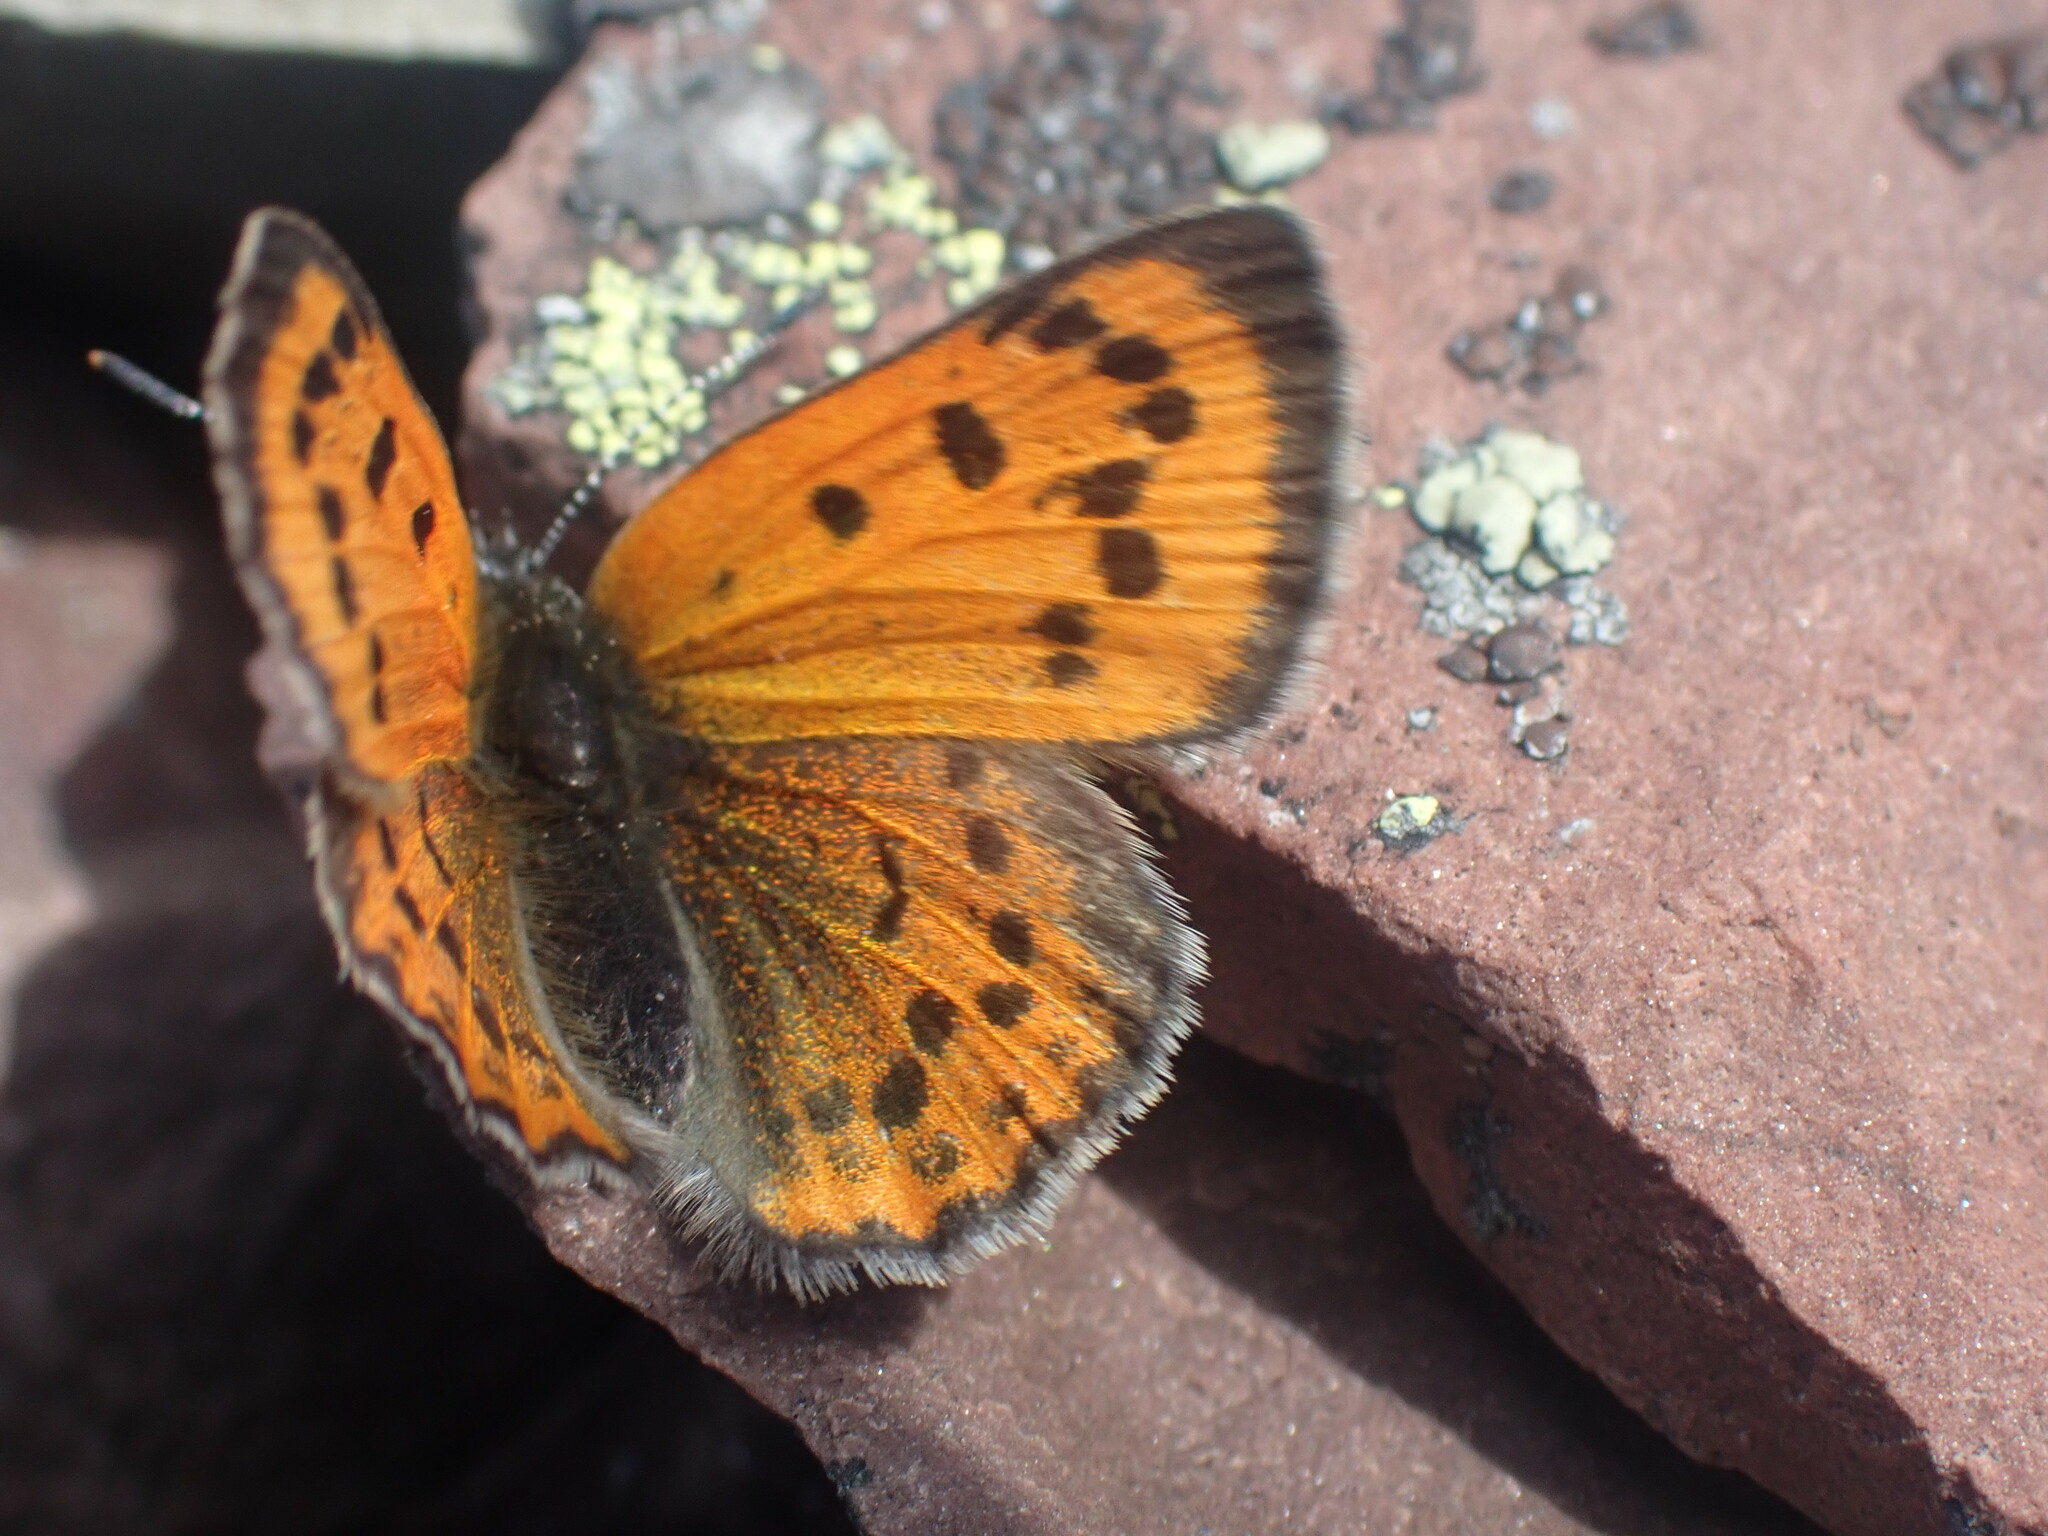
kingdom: Animalia
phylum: Arthropoda
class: Insecta
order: Lepidoptera
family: Lycaenidae
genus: Lycaena
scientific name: Lycaena cupreus
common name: Lustrous copper
